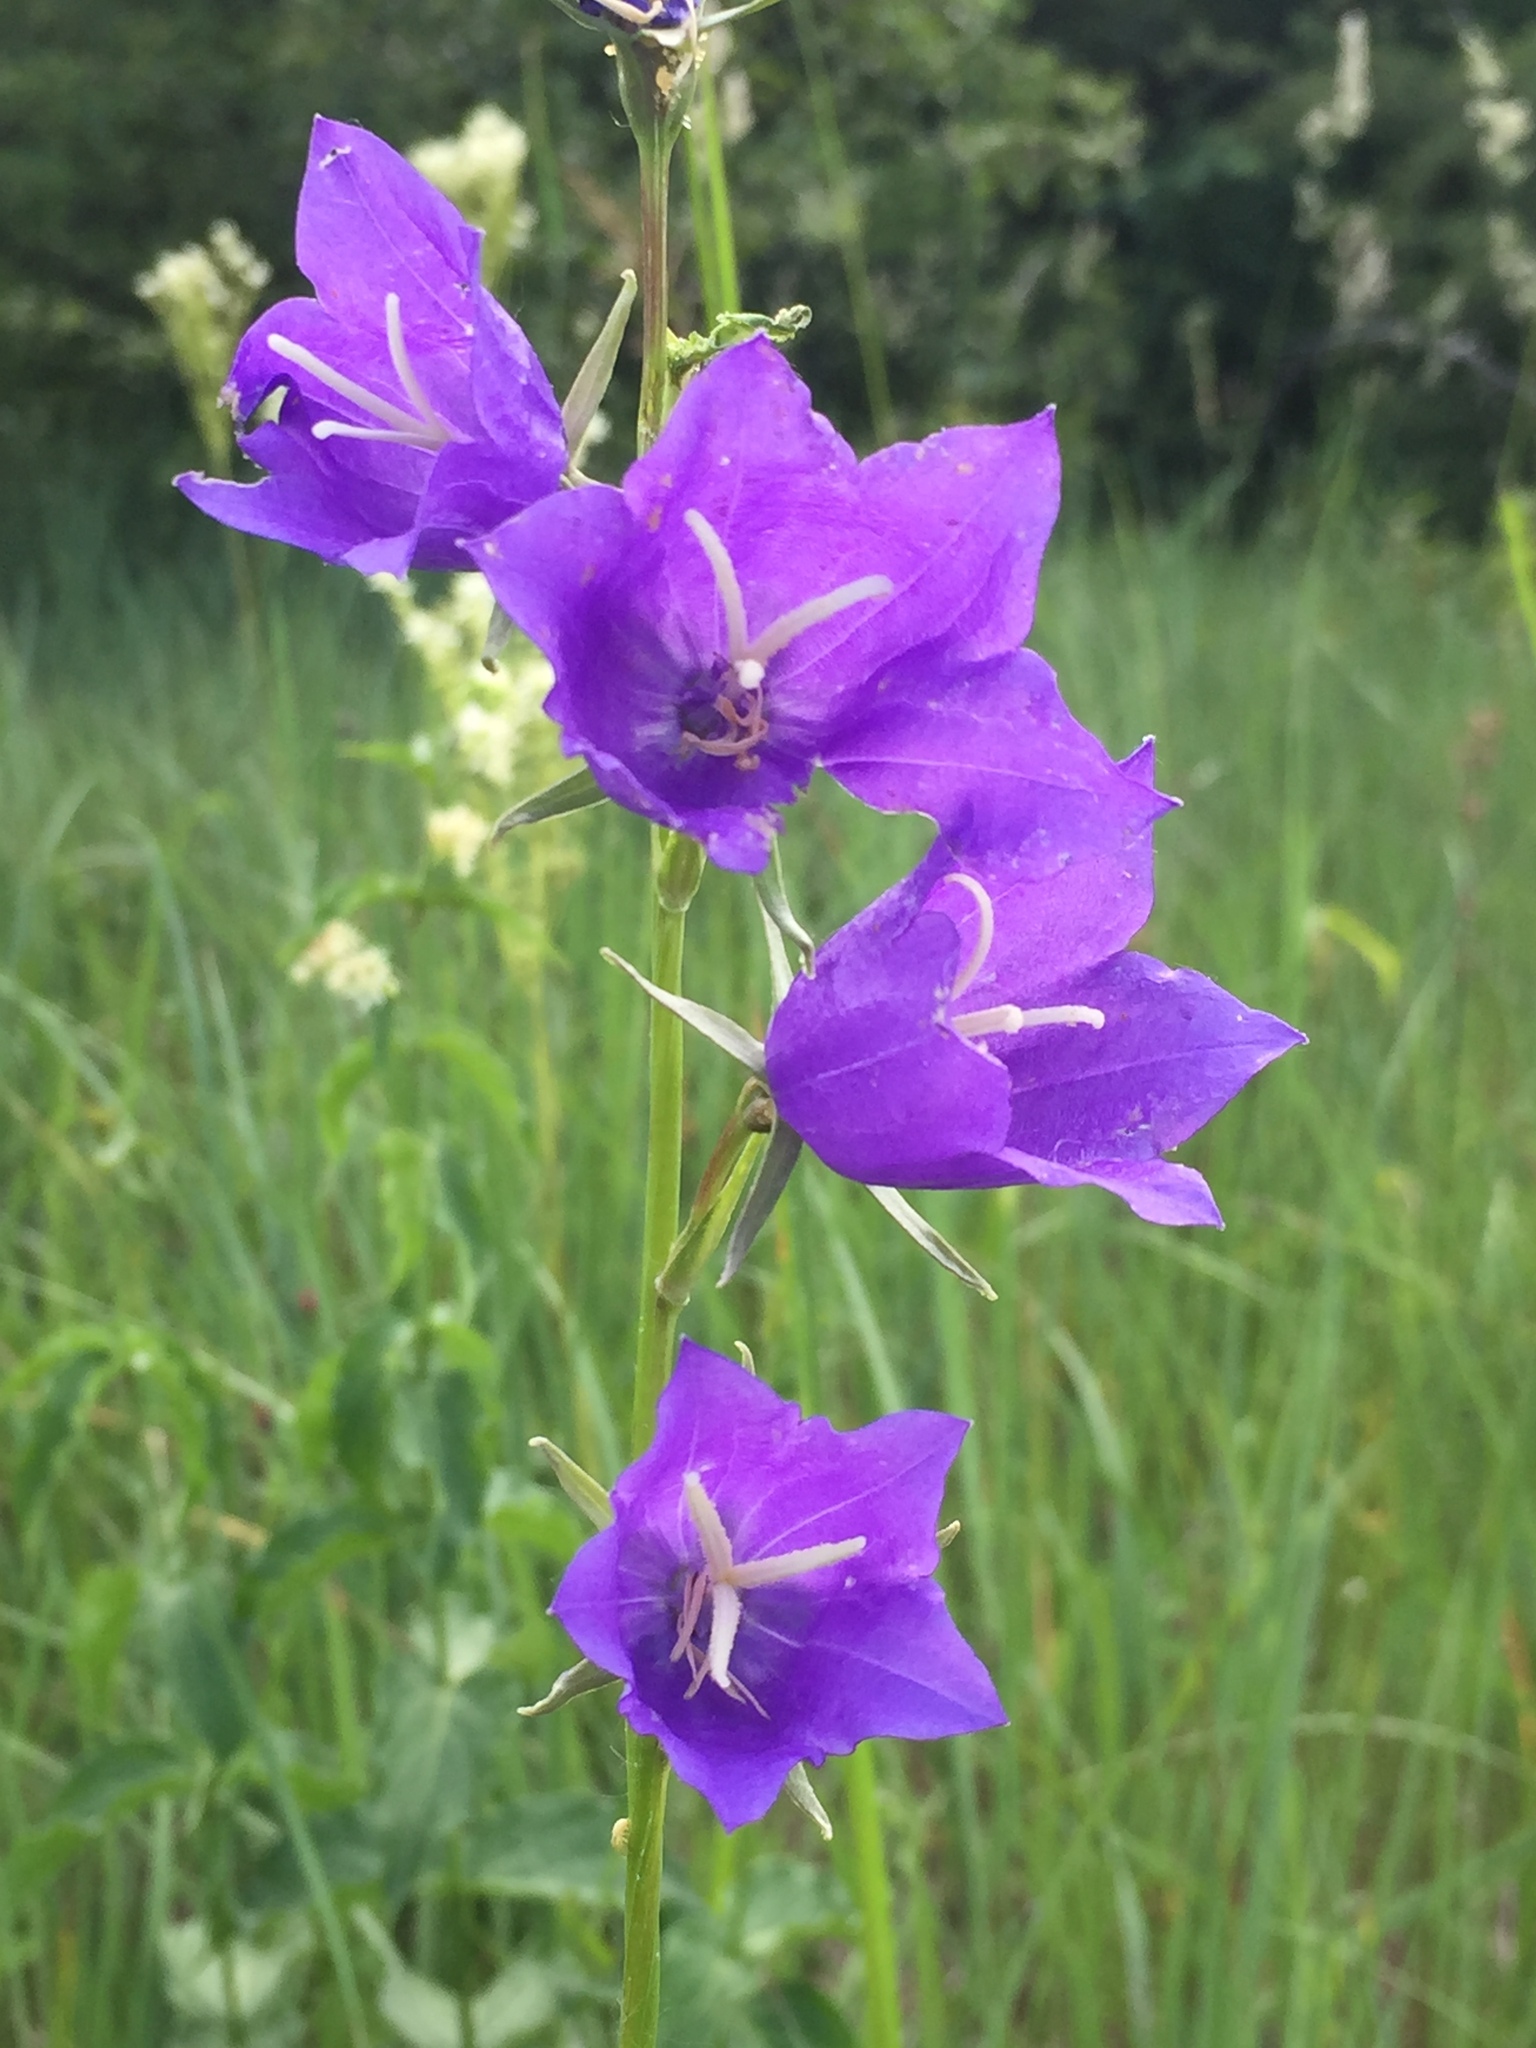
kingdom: Plantae
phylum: Tracheophyta
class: Magnoliopsida
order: Asterales
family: Campanulaceae
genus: Campanula
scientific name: Campanula persicifolia
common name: Peach-leaved bellflower
